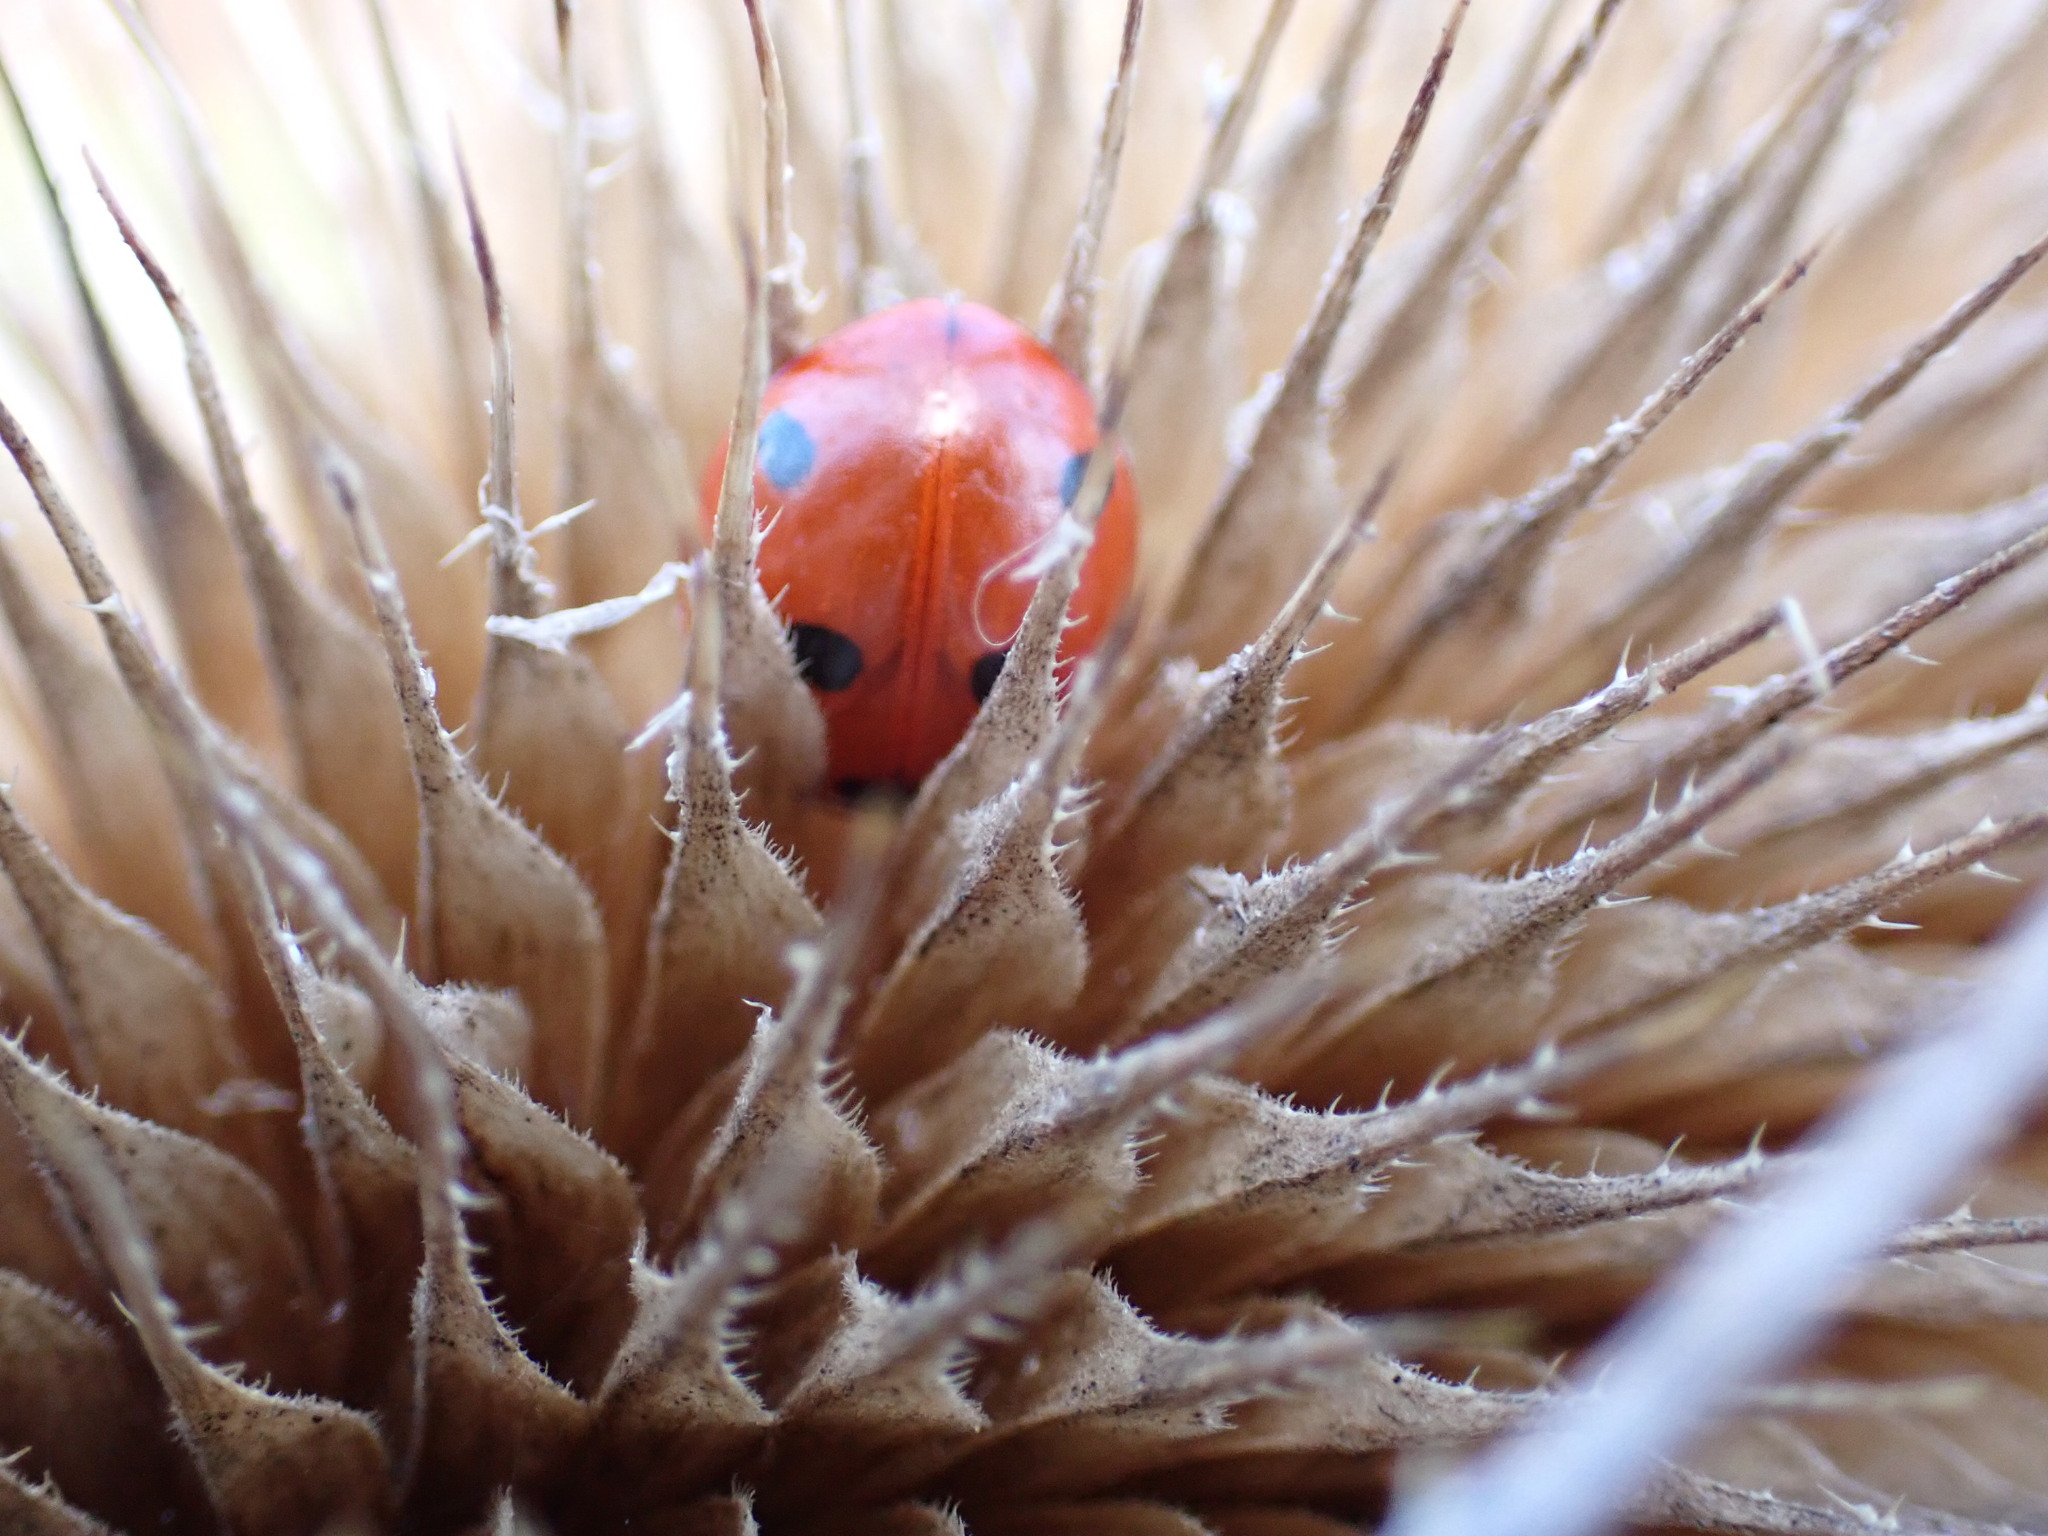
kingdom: Animalia
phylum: Arthropoda
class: Insecta
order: Coleoptera
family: Coccinellidae
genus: Coccinella
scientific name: Coccinella septempunctata
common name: Sevenspotted lady beetle
